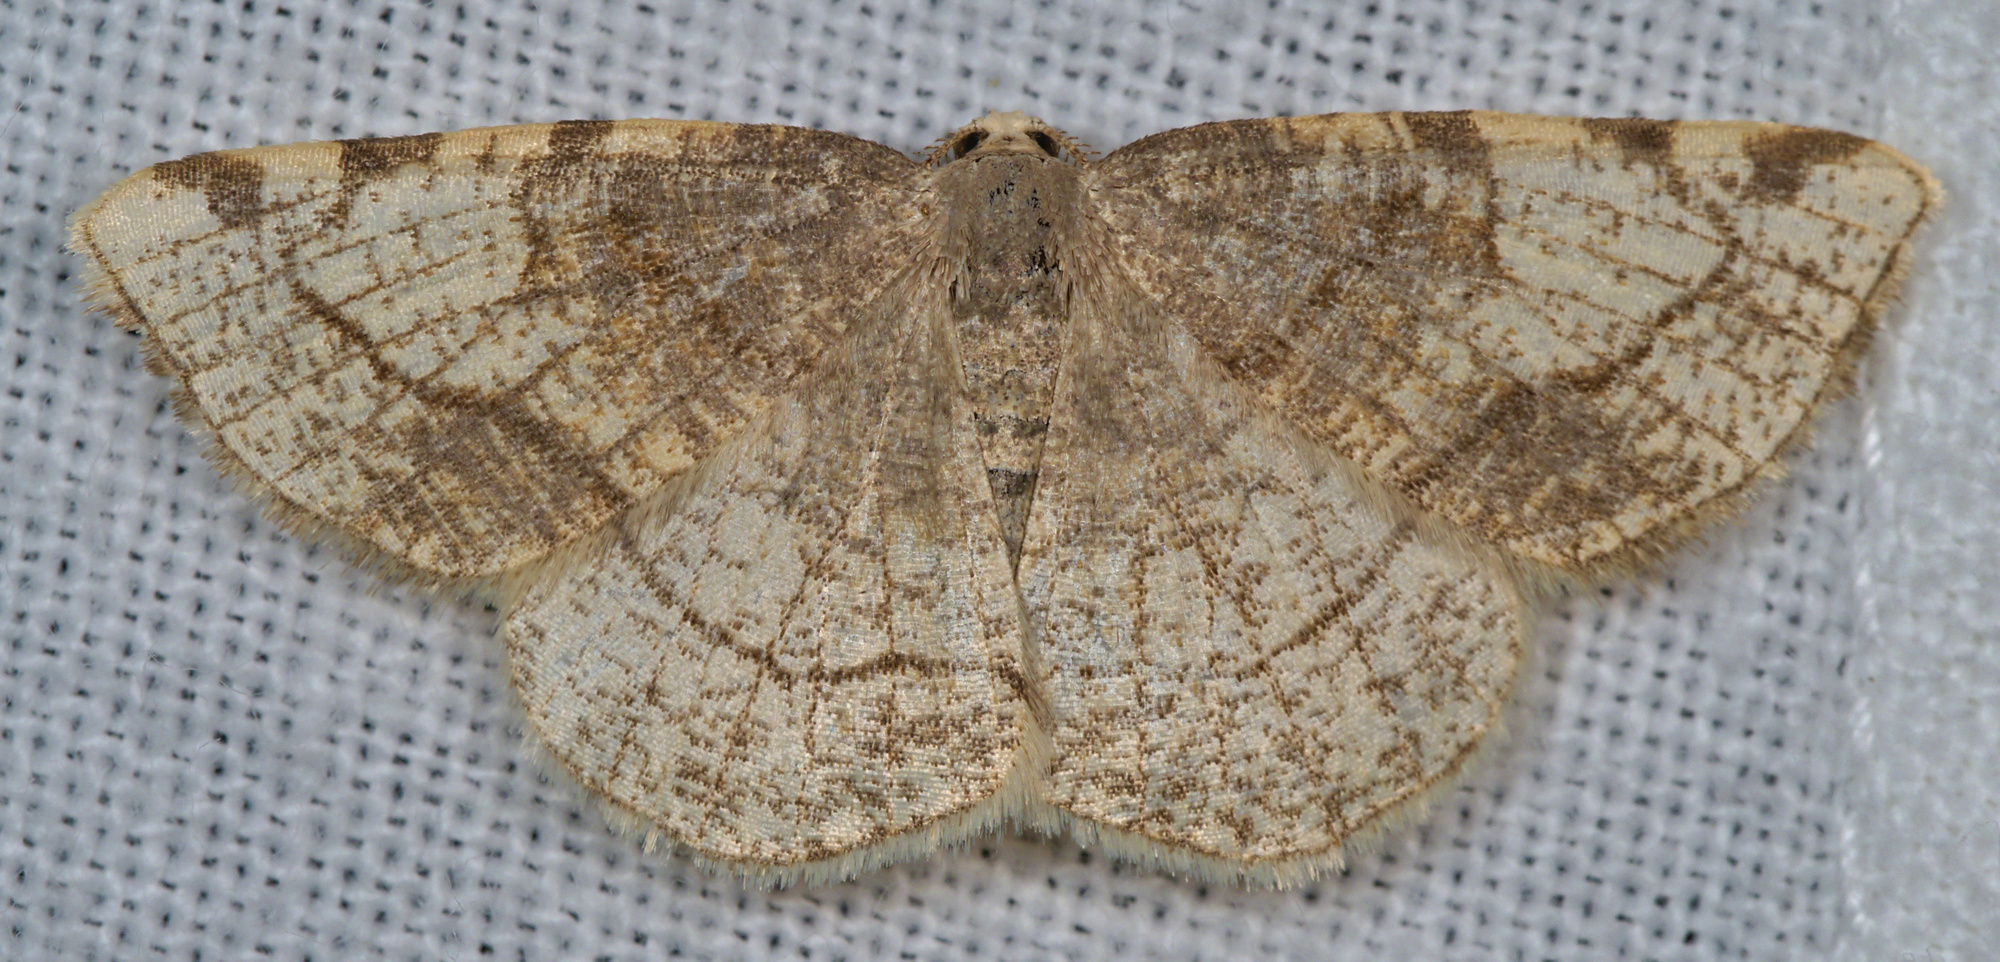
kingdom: Animalia
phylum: Arthropoda
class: Insecta
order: Lepidoptera
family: Geometridae
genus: Stegania
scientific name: Stegania trimaculata
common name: Dorset cream wave
